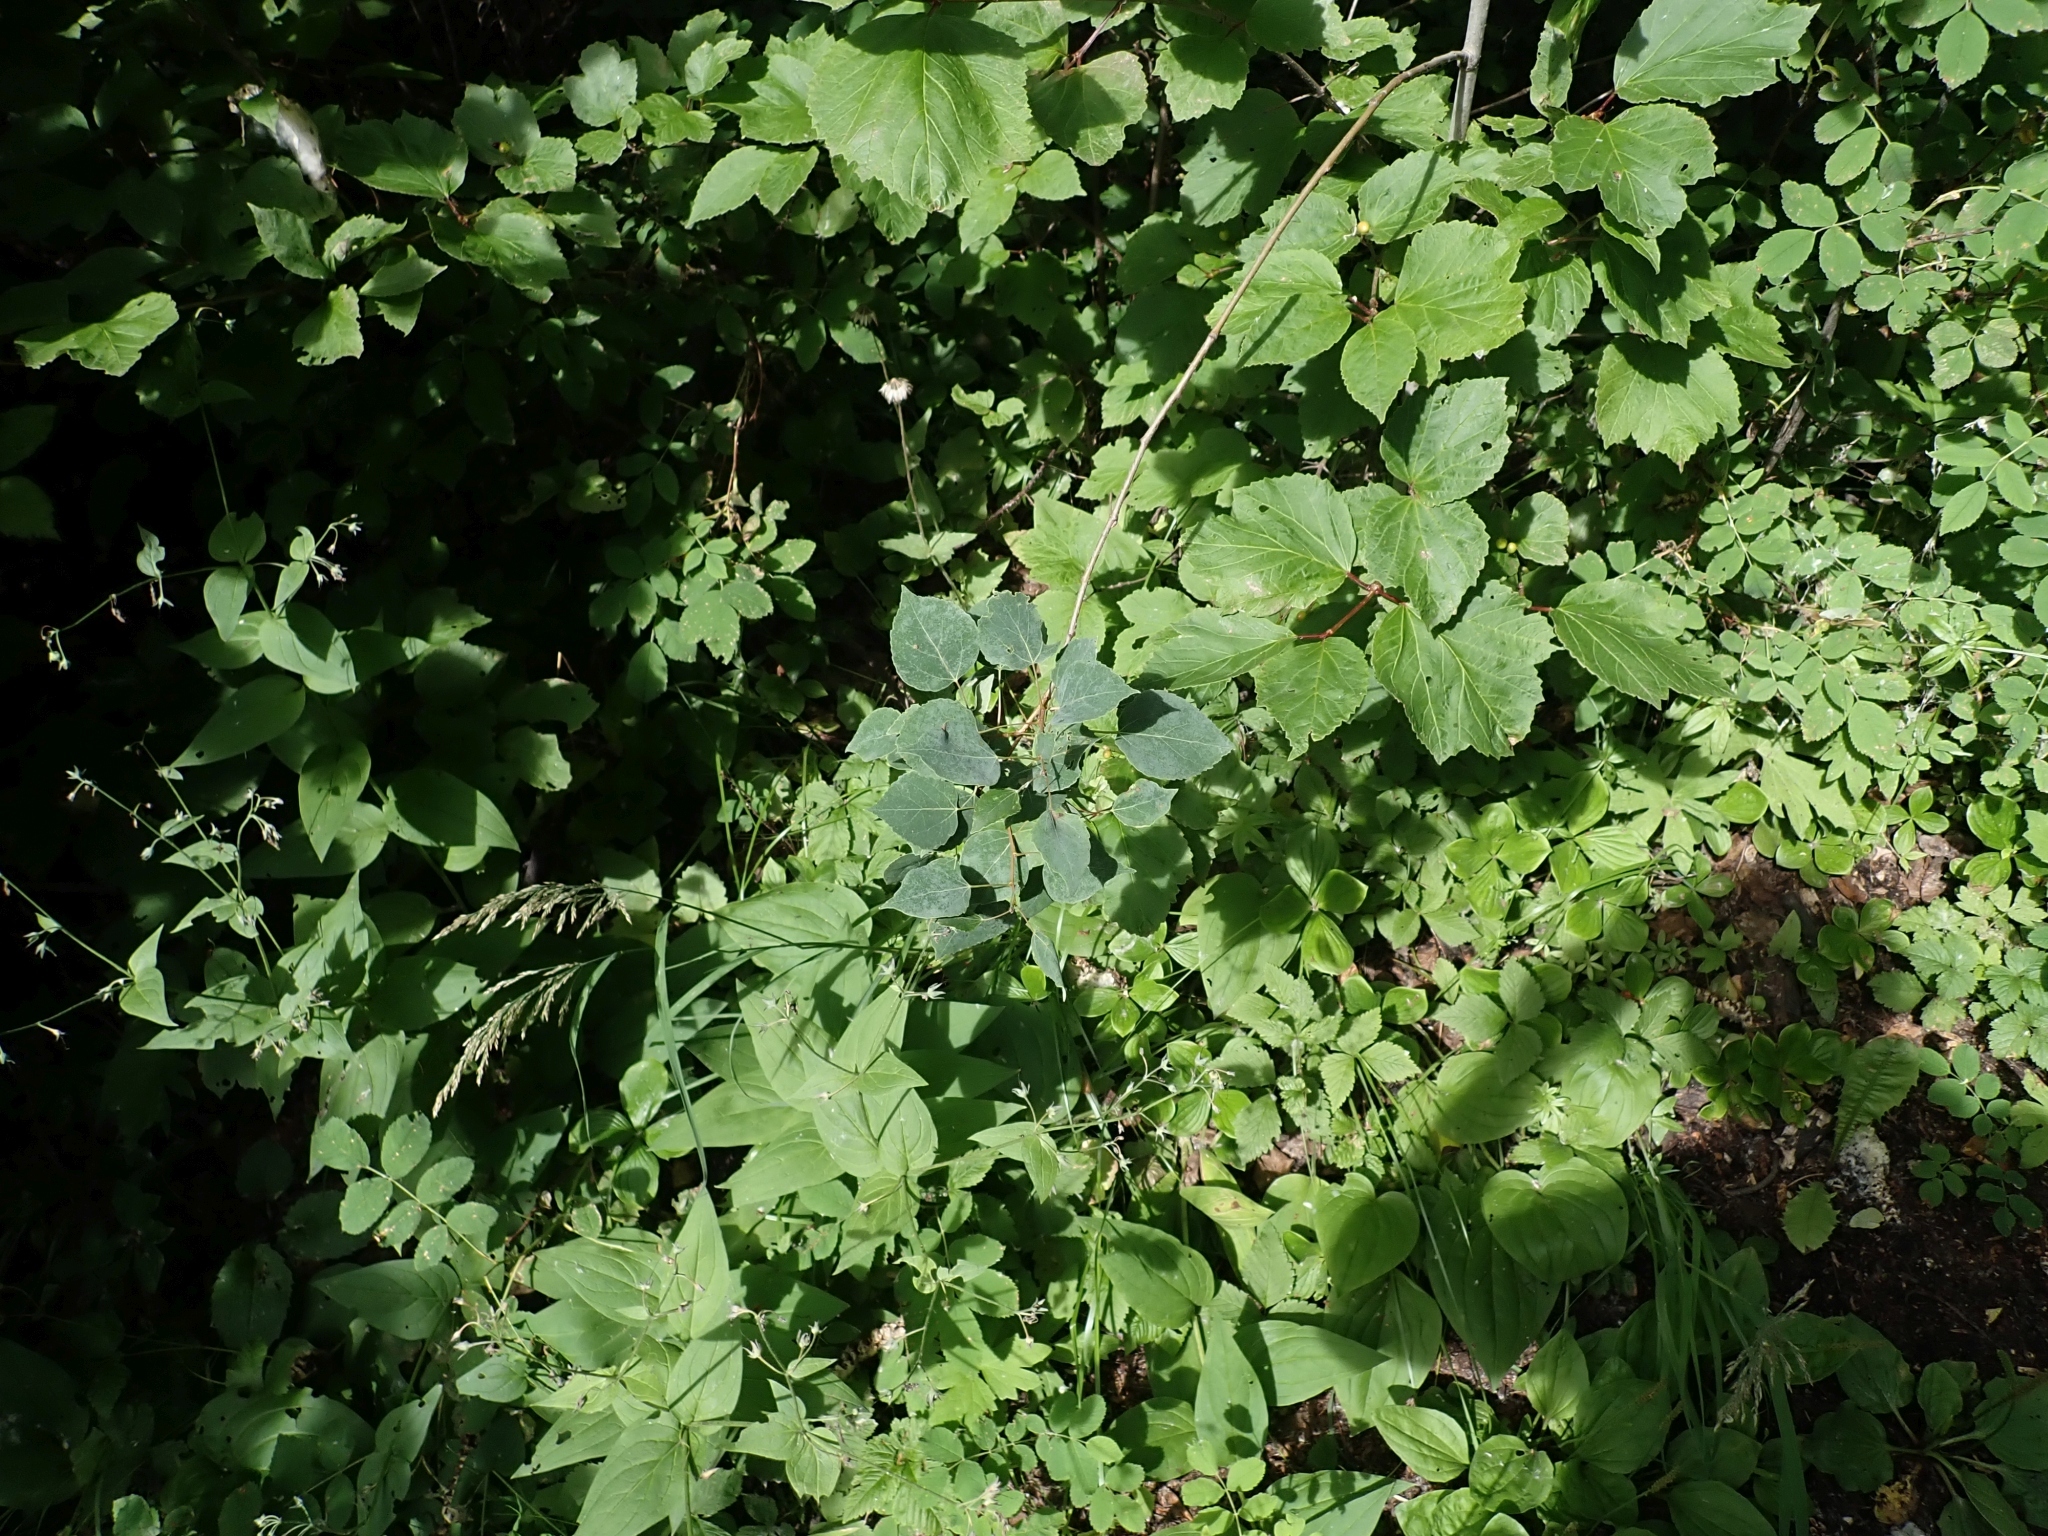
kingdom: Plantae
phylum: Tracheophyta
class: Magnoliopsida
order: Malpighiales
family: Salicaceae
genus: Populus
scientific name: Populus tremuloides
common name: Quaking aspen
